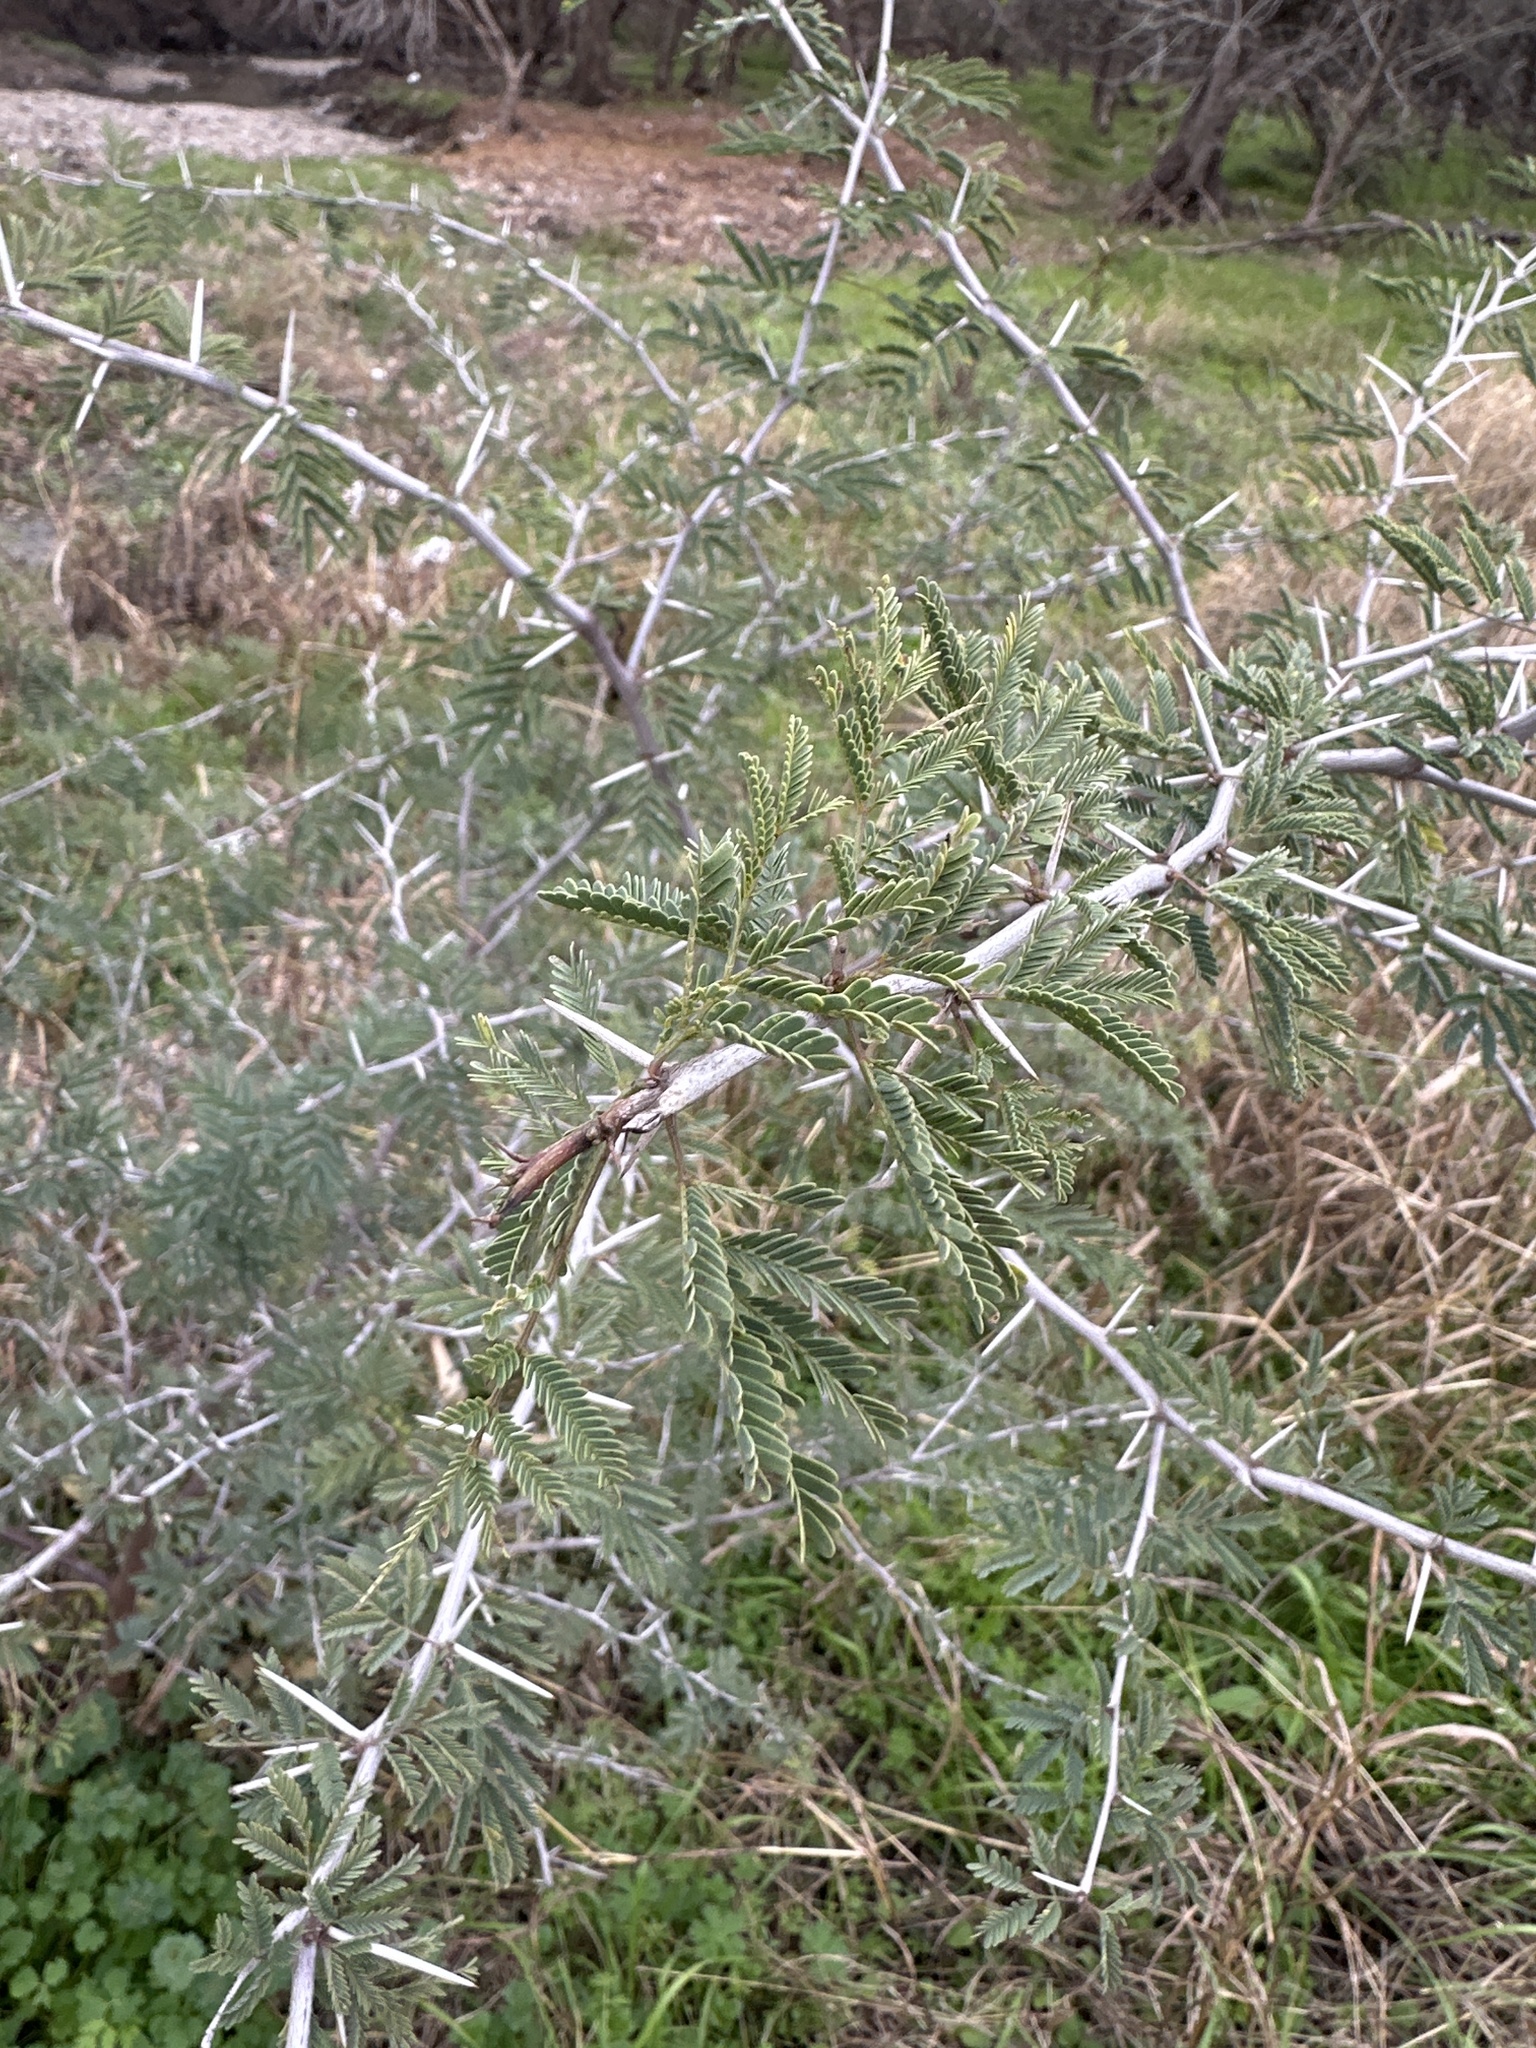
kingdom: Plantae
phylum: Tracheophyta
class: Magnoliopsida
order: Fabales
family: Fabaceae
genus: Vachellia
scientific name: Vachellia farnesiana
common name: Sweet acacia
